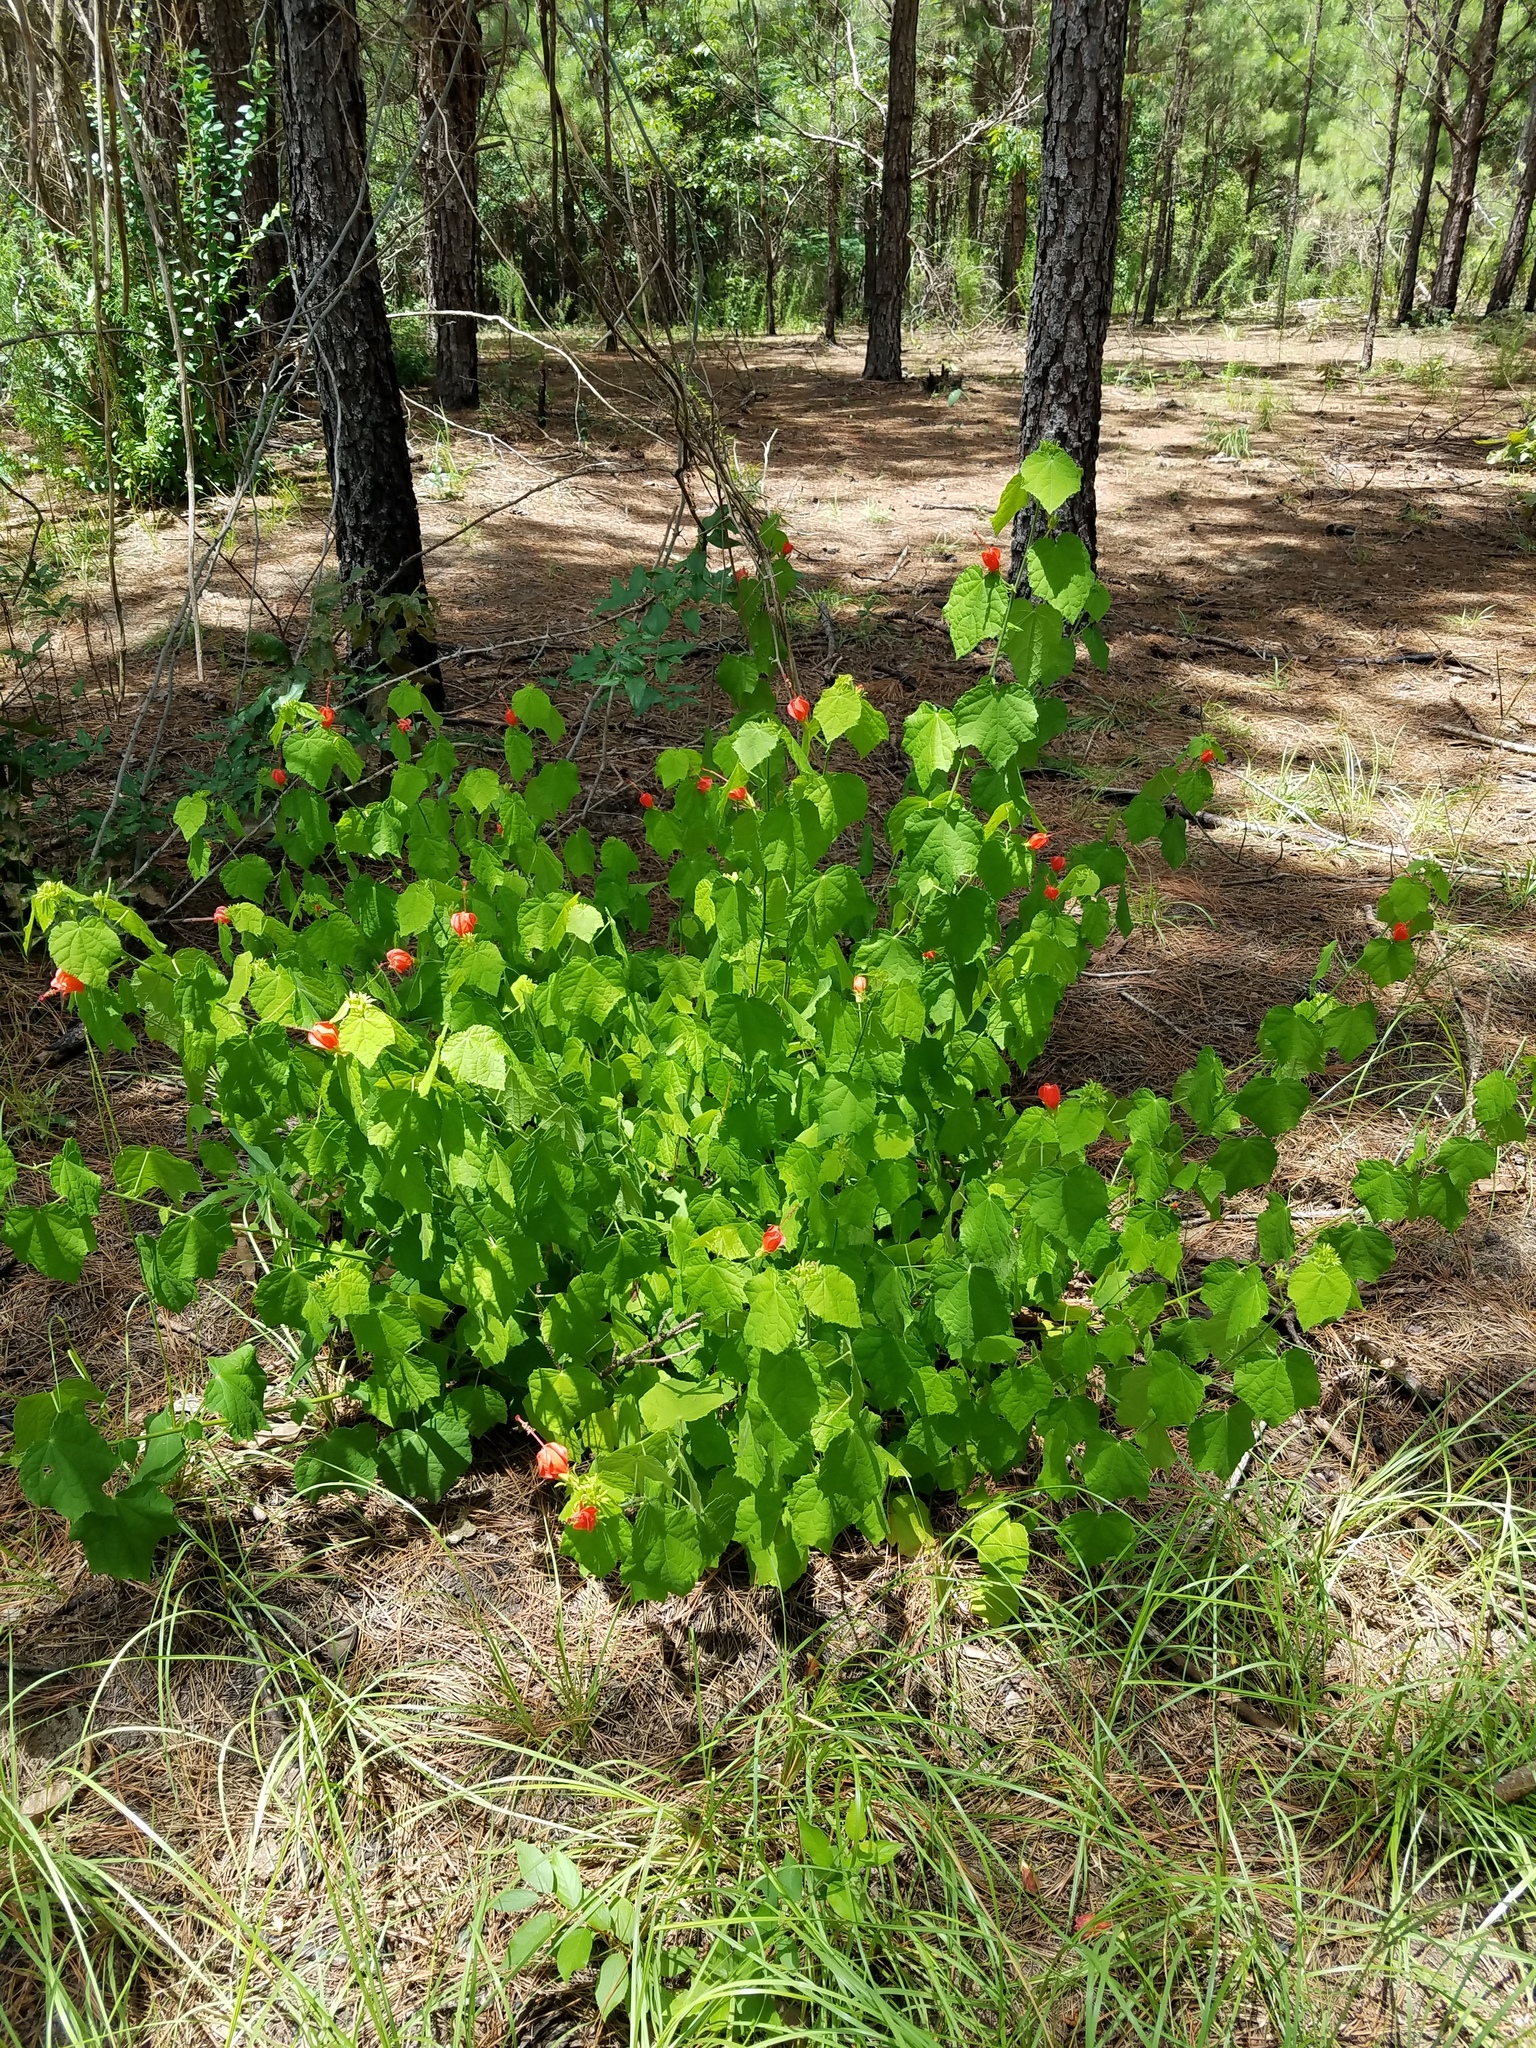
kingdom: Plantae
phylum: Tracheophyta
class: Magnoliopsida
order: Malvales
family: Malvaceae
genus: Malvaviscus
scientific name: Malvaviscus arboreus
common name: Wax mallow
